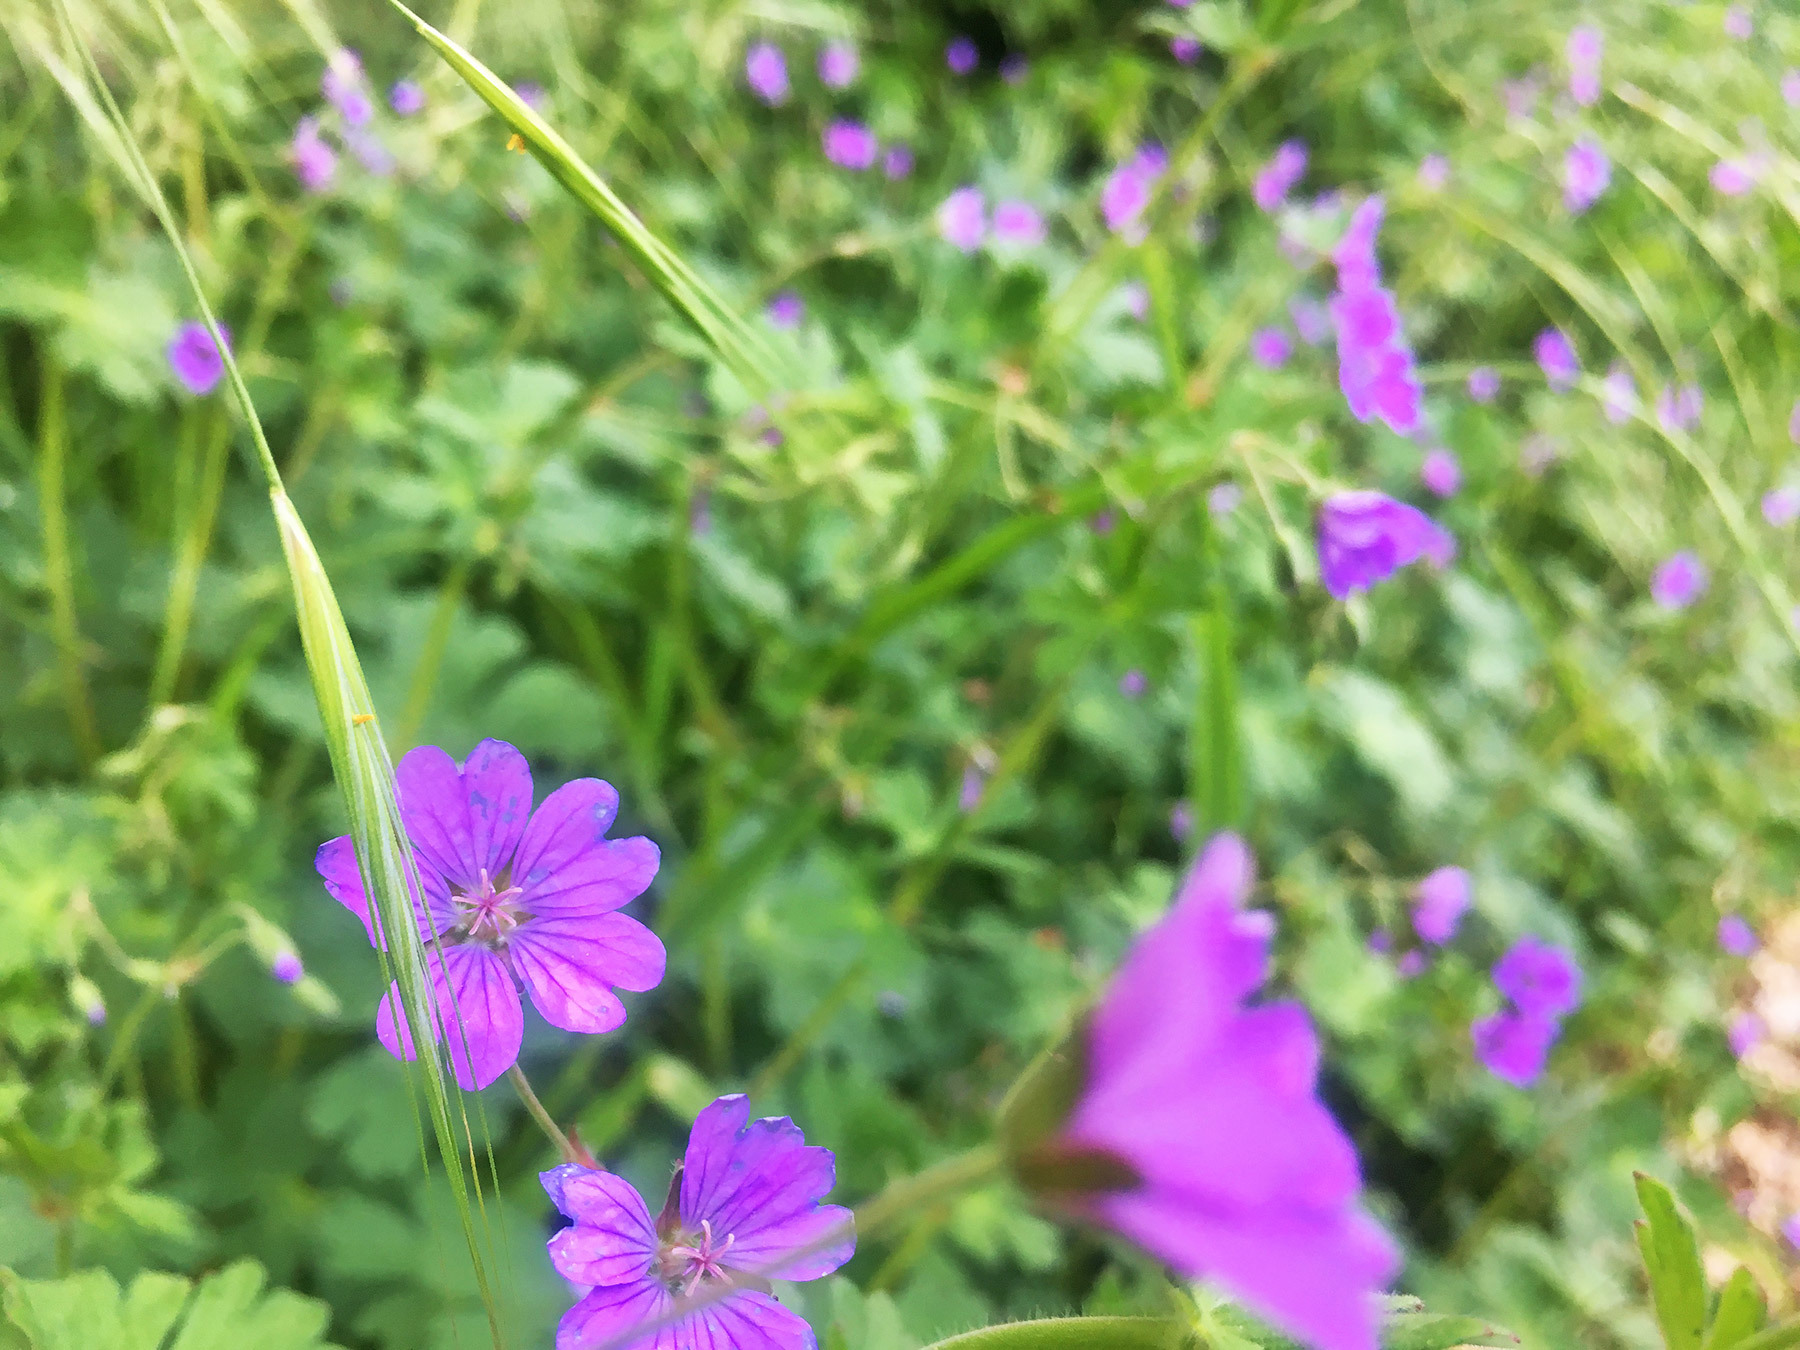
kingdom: Plantae
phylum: Tracheophyta
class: Magnoliopsida
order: Geraniales
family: Geraniaceae
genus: Geranium
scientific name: Geranium pyrenaicum
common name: Hedgerow crane's-bill
